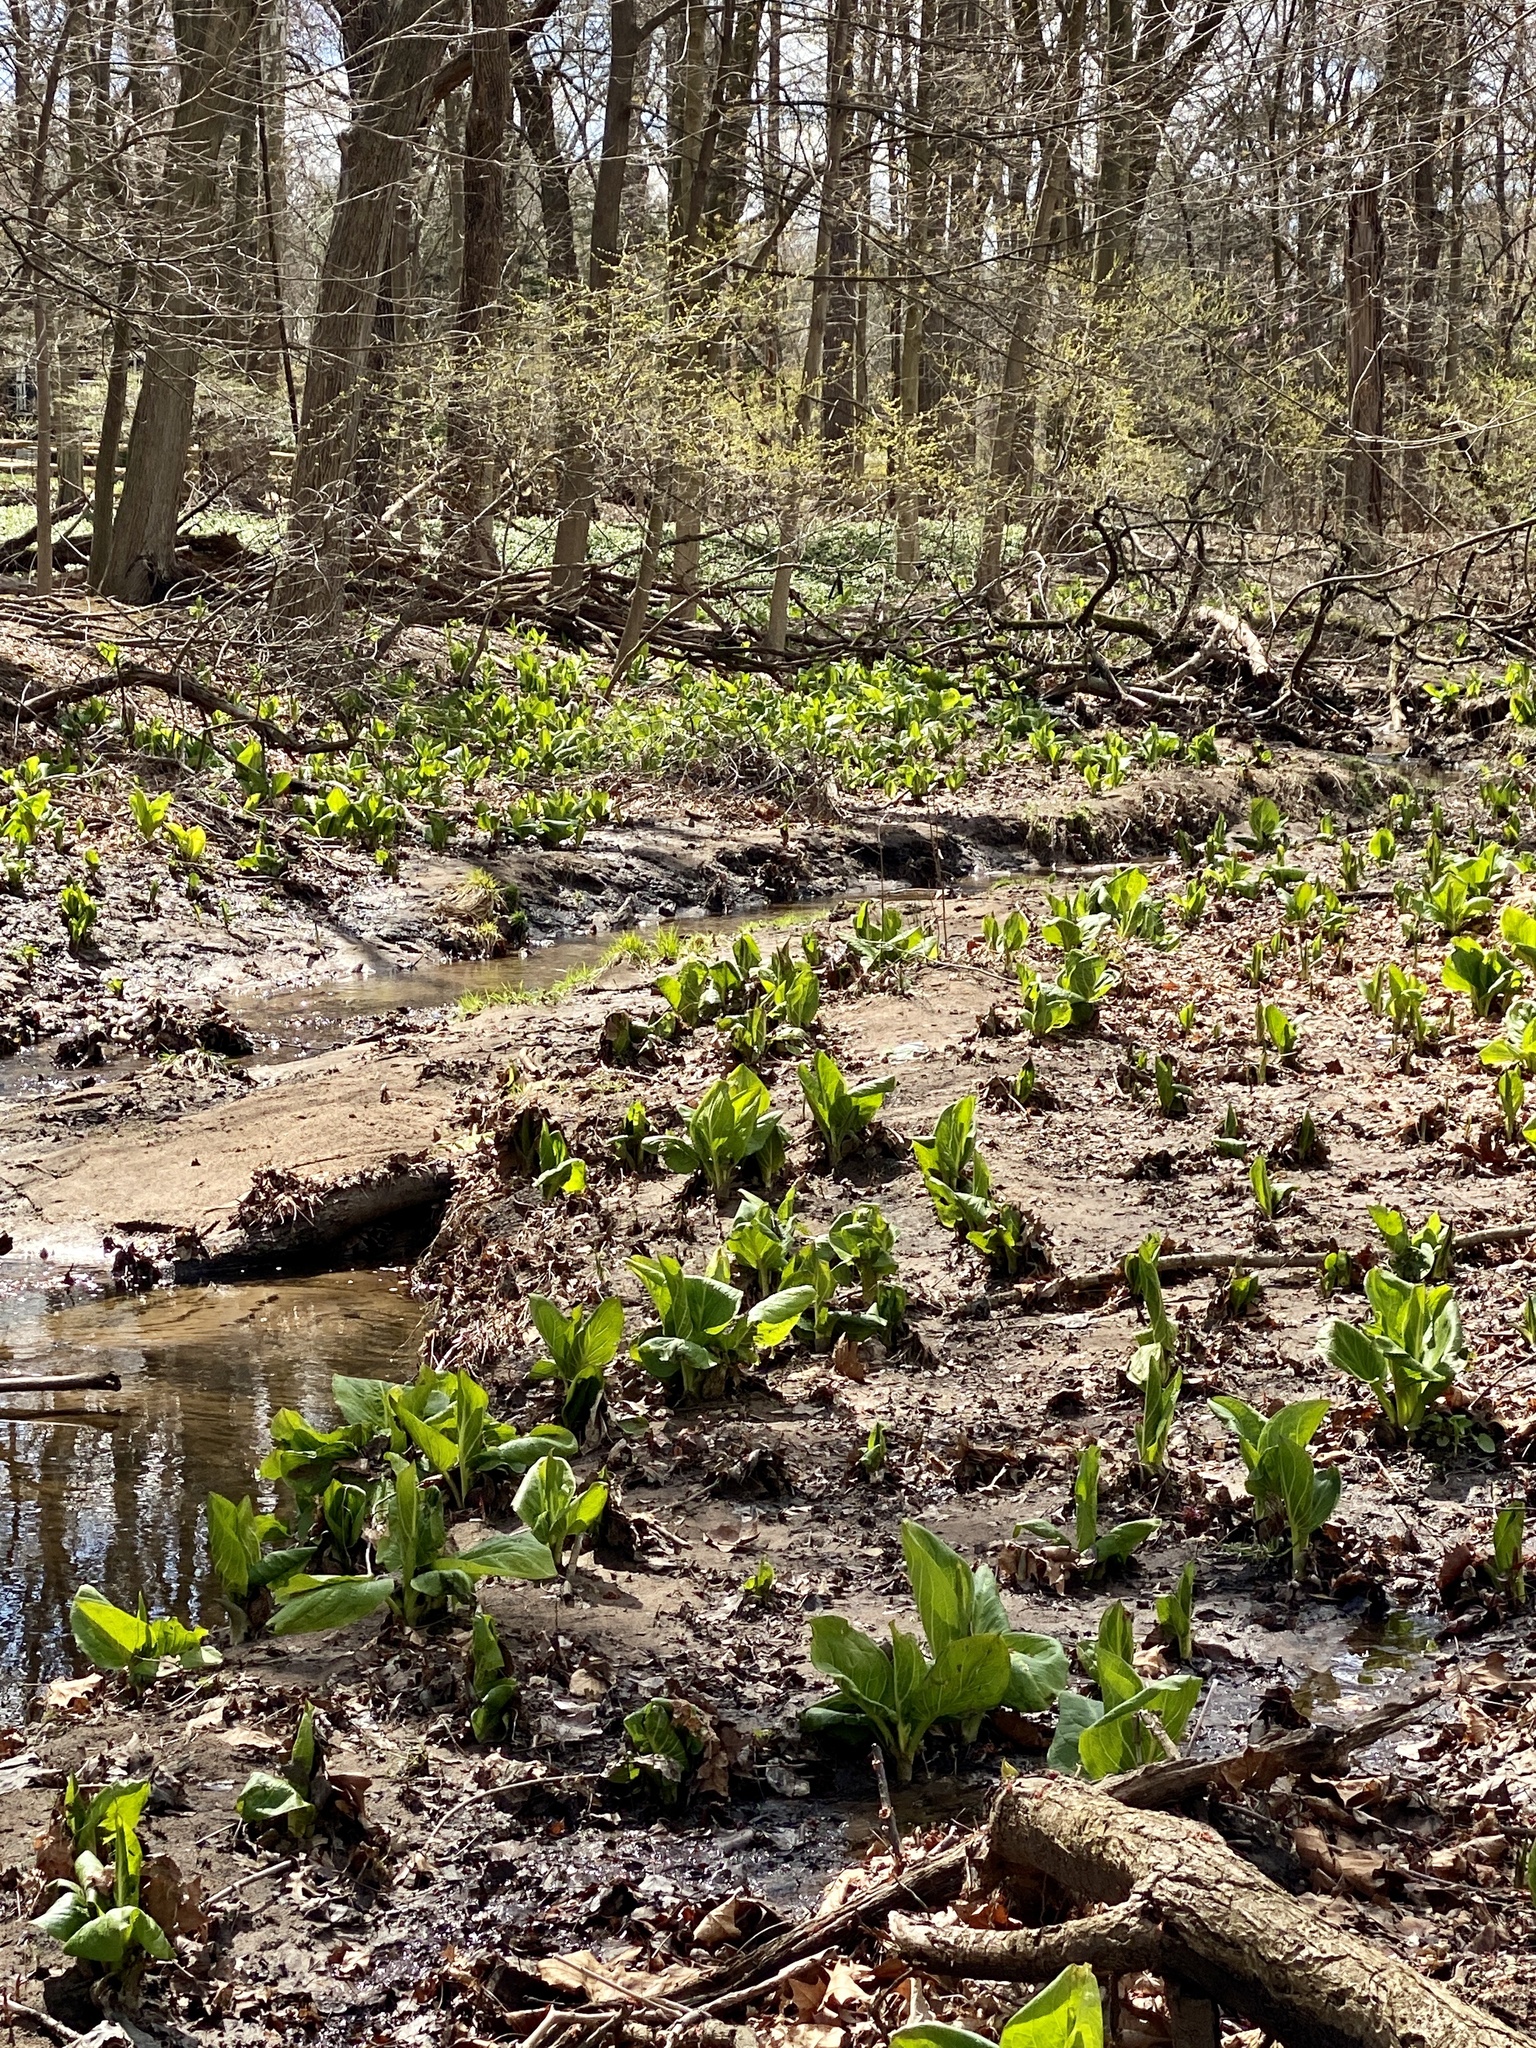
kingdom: Plantae
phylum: Tracheophyta
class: Liliopsida
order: Alismatales
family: Araceae
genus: Symplocarpus
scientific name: Symplocarpus foetidus
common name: Eastern skunk cabbage
